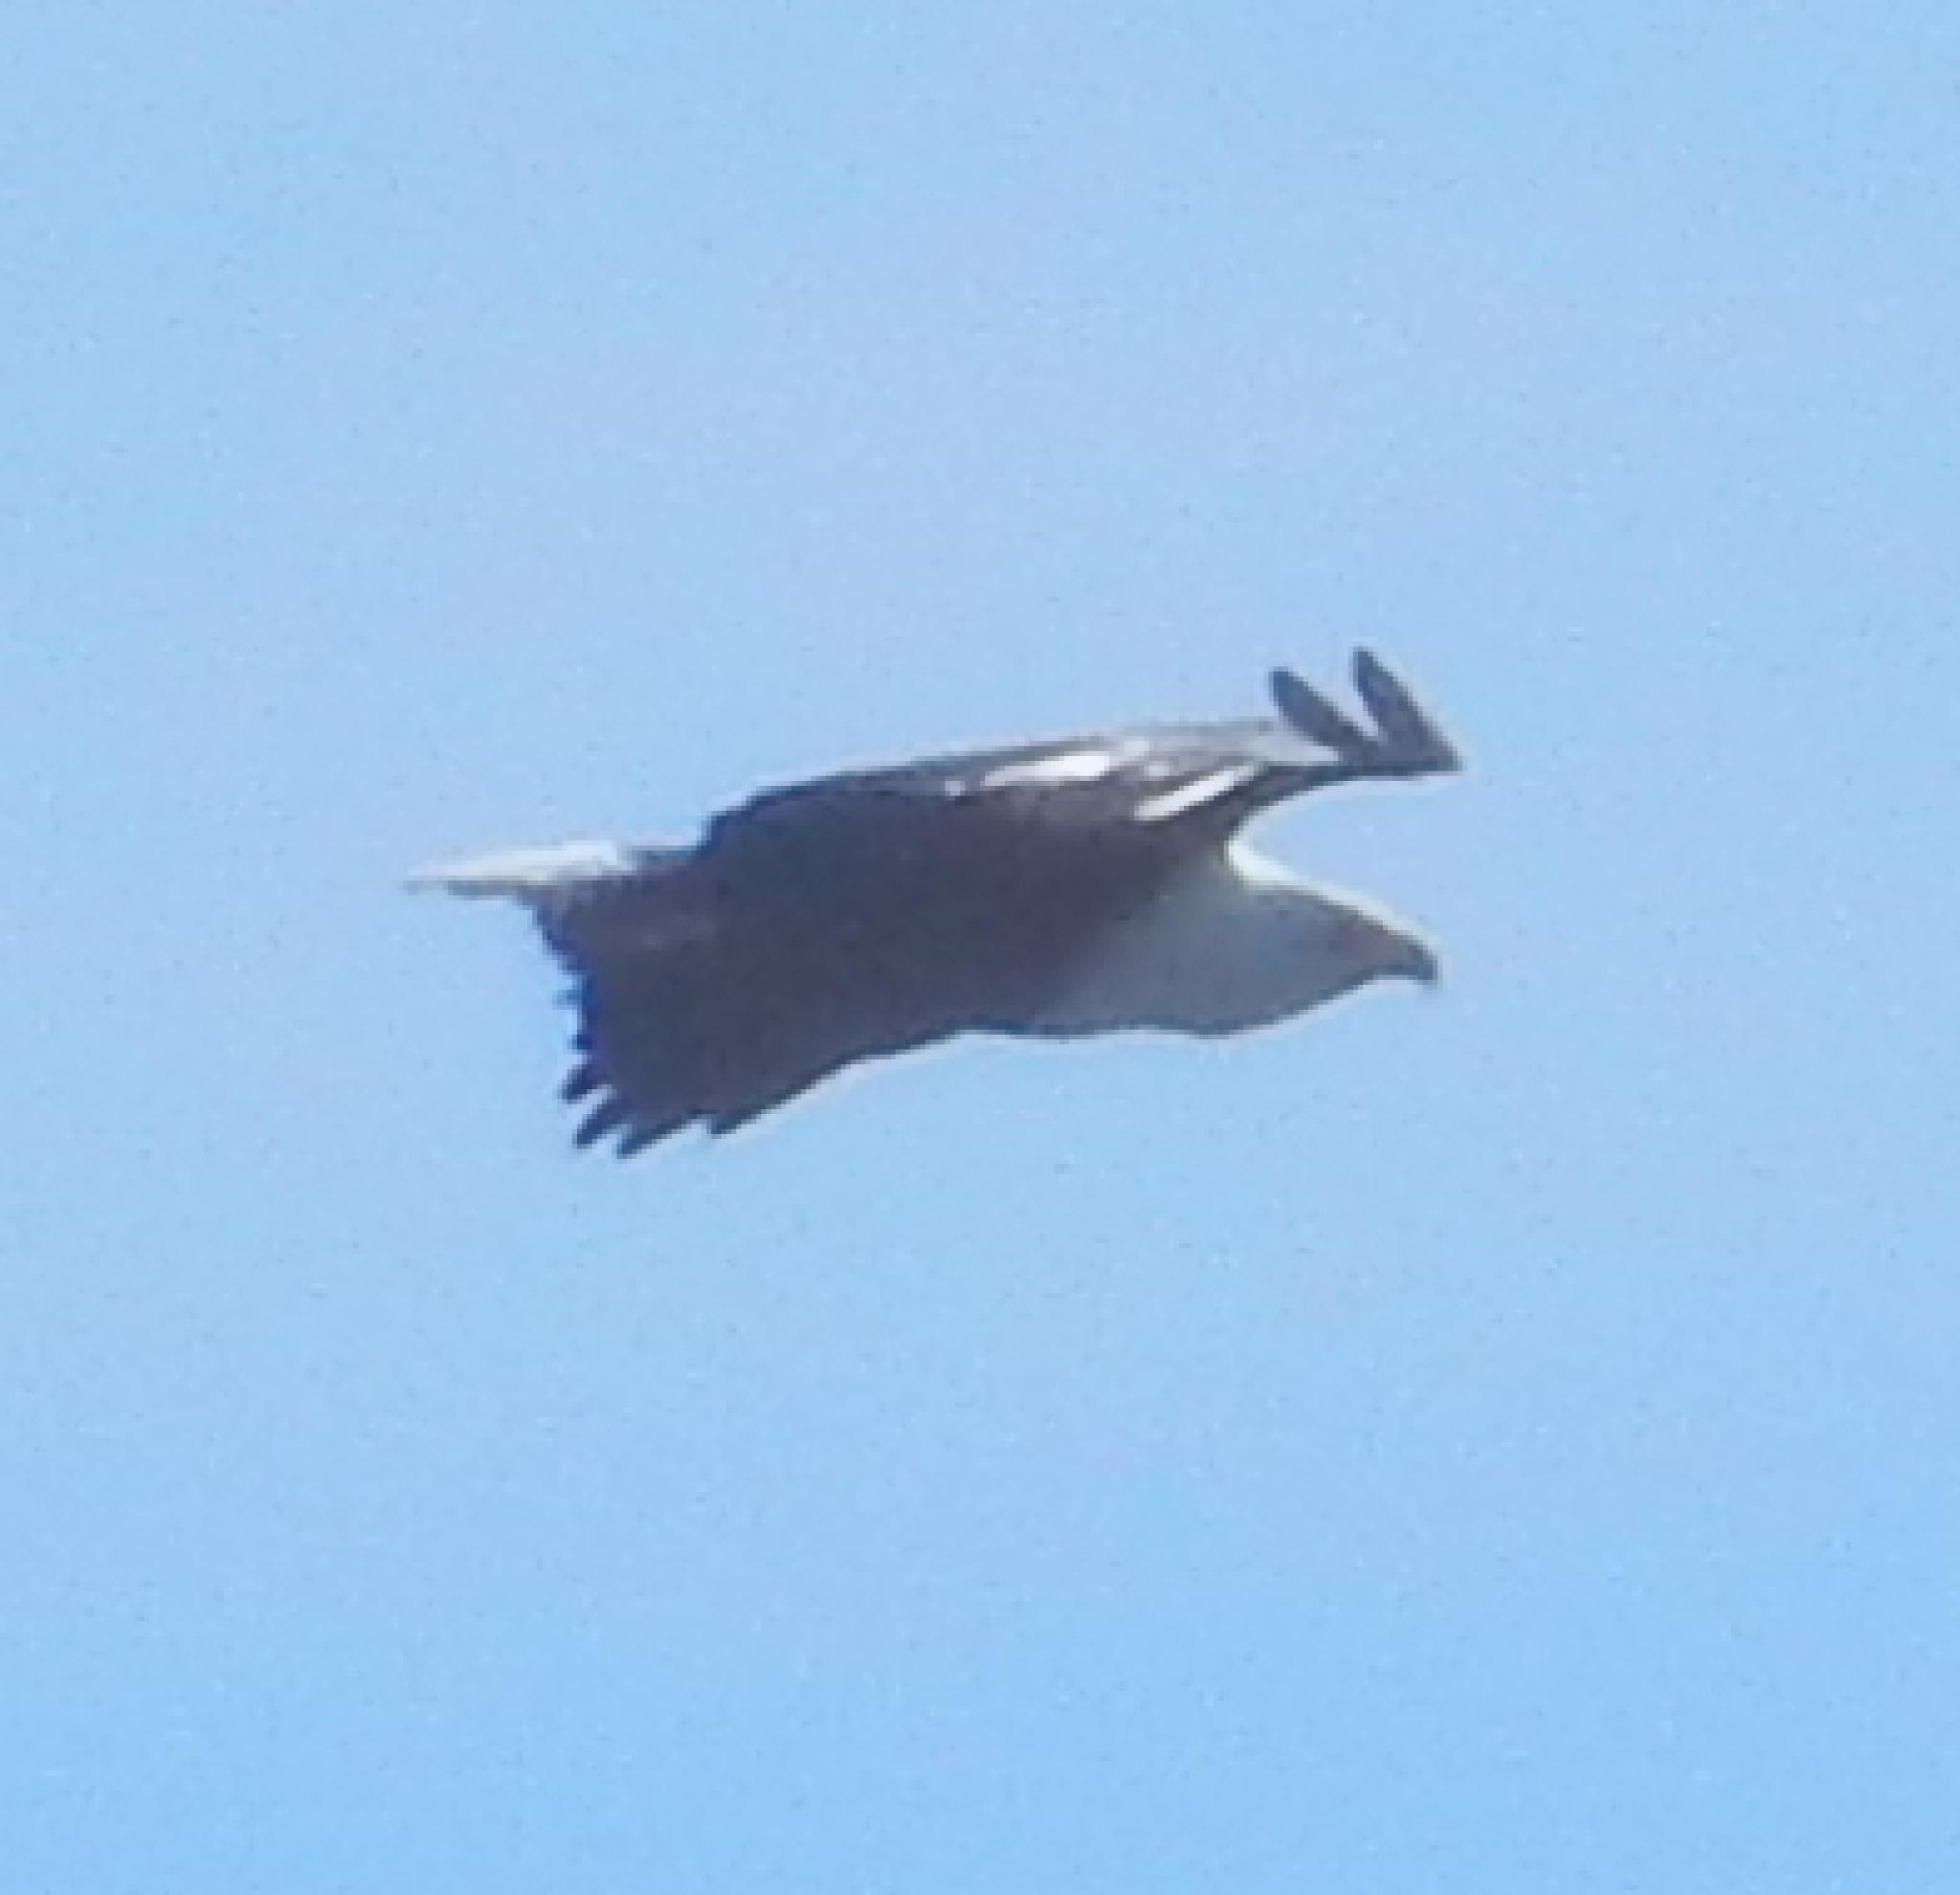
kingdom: Animalia
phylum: Chordata
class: Aves
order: Accipitriformes
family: Accipitridae
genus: Haliaeetus
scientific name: Haliaeetus vocifer
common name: African fish eagle
